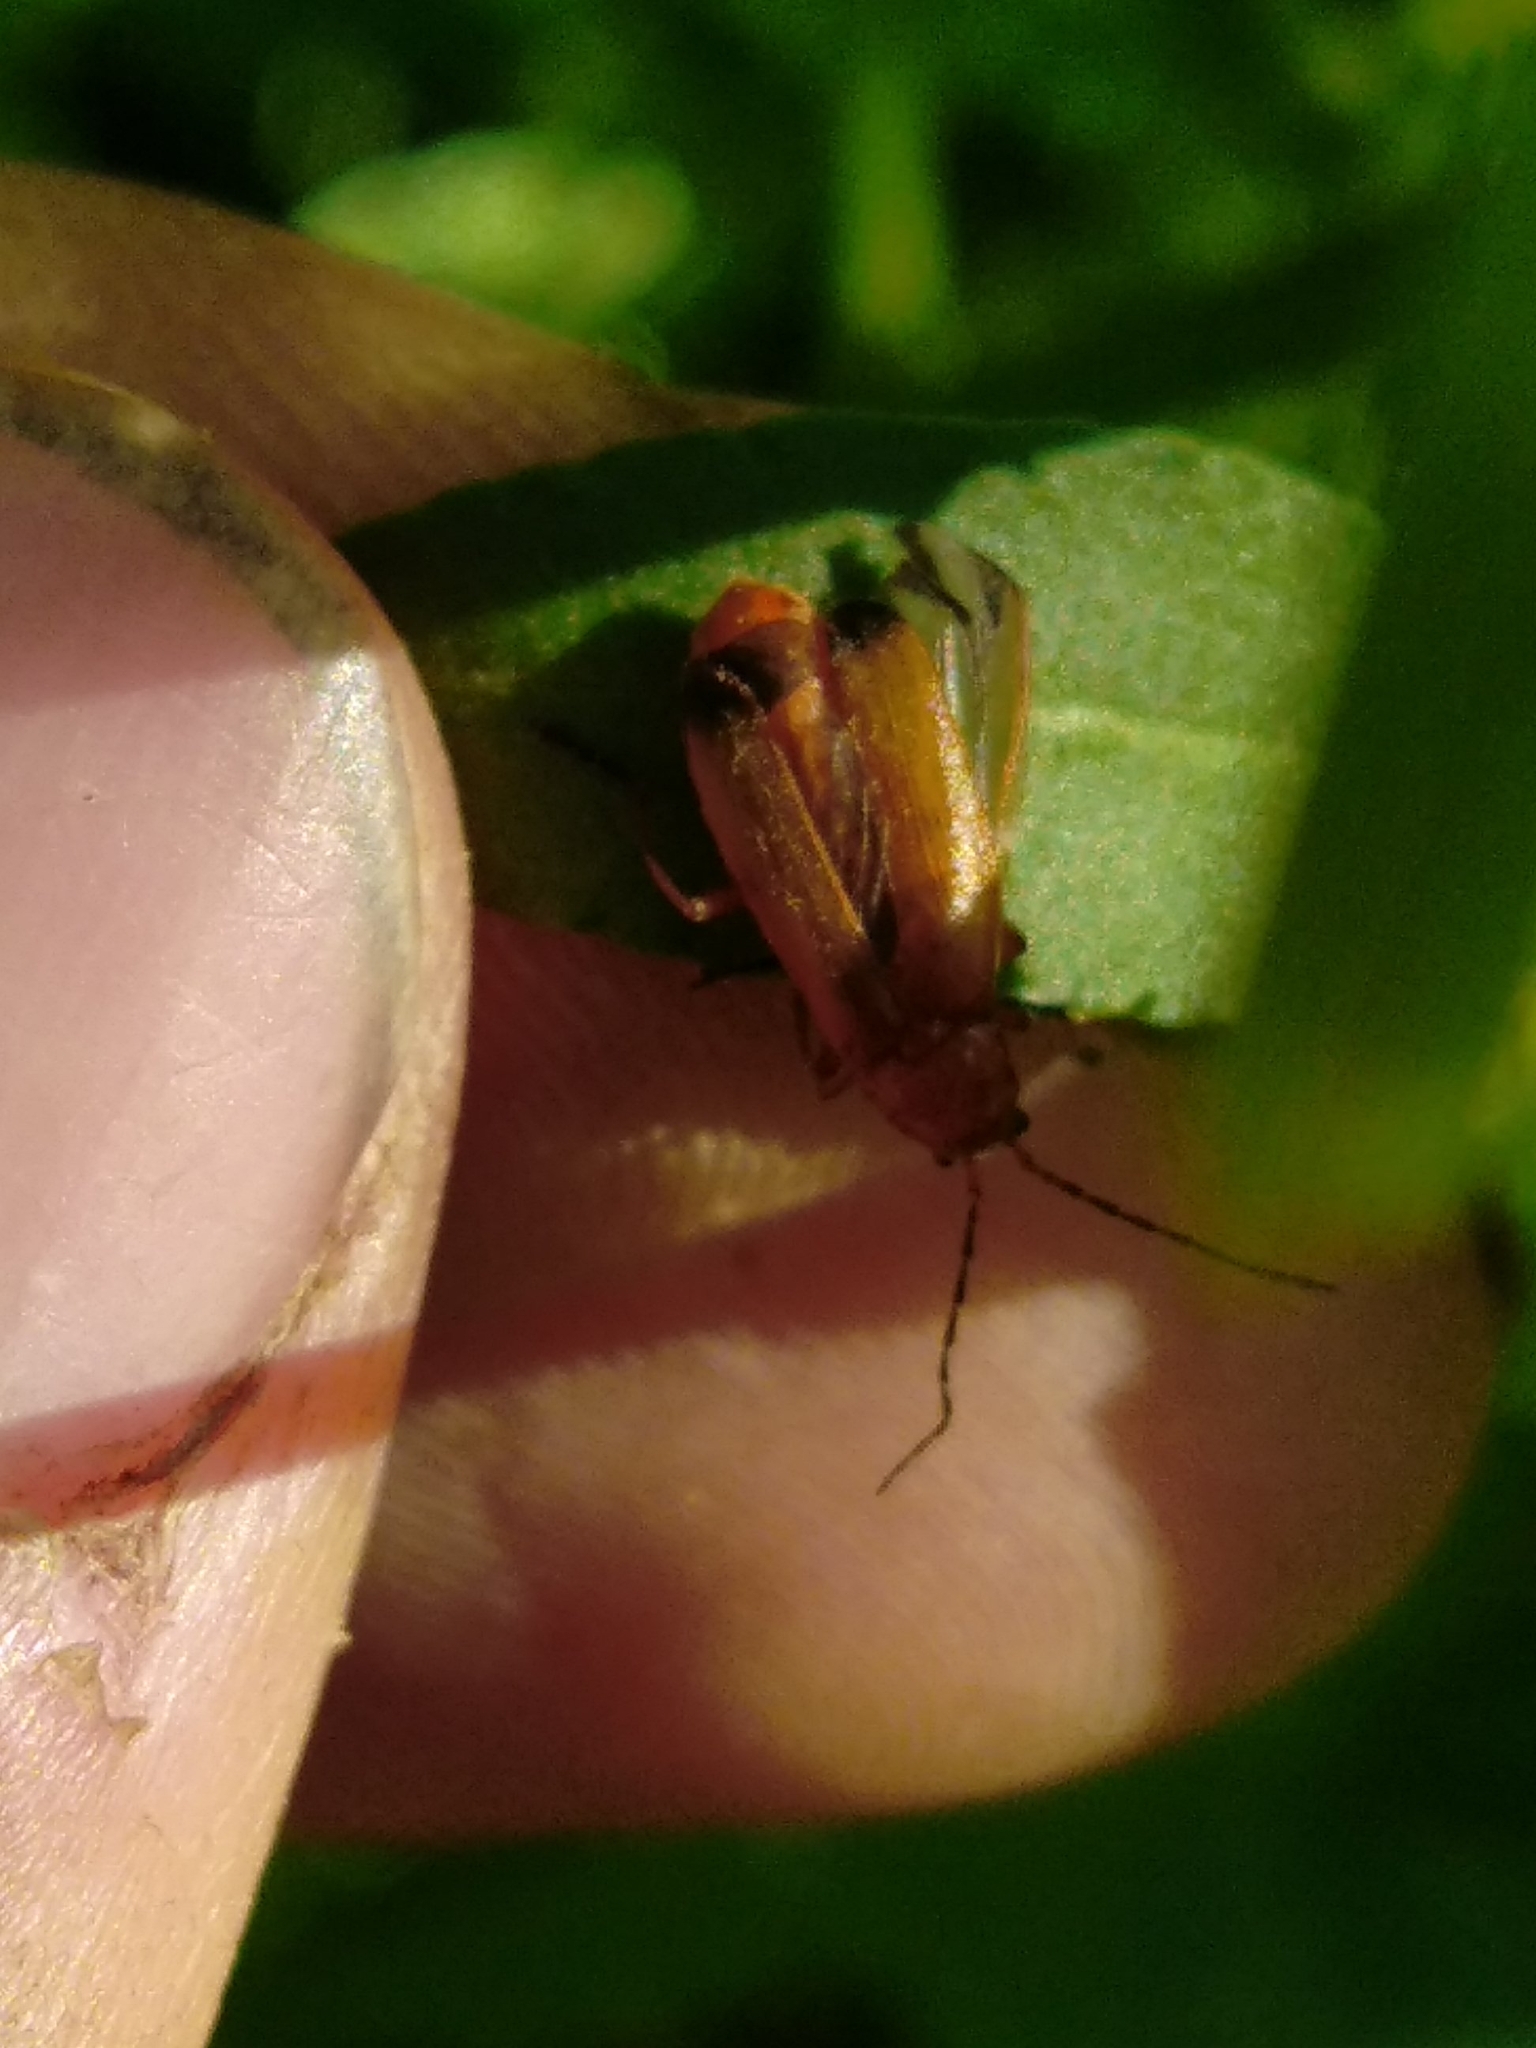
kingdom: Animalia
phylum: Arthropoda
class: Insecta
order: Coleoptera
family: Cantharidae
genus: Rhagonycha
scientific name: Rhagonycha fulva
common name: Common red soldier beetle
